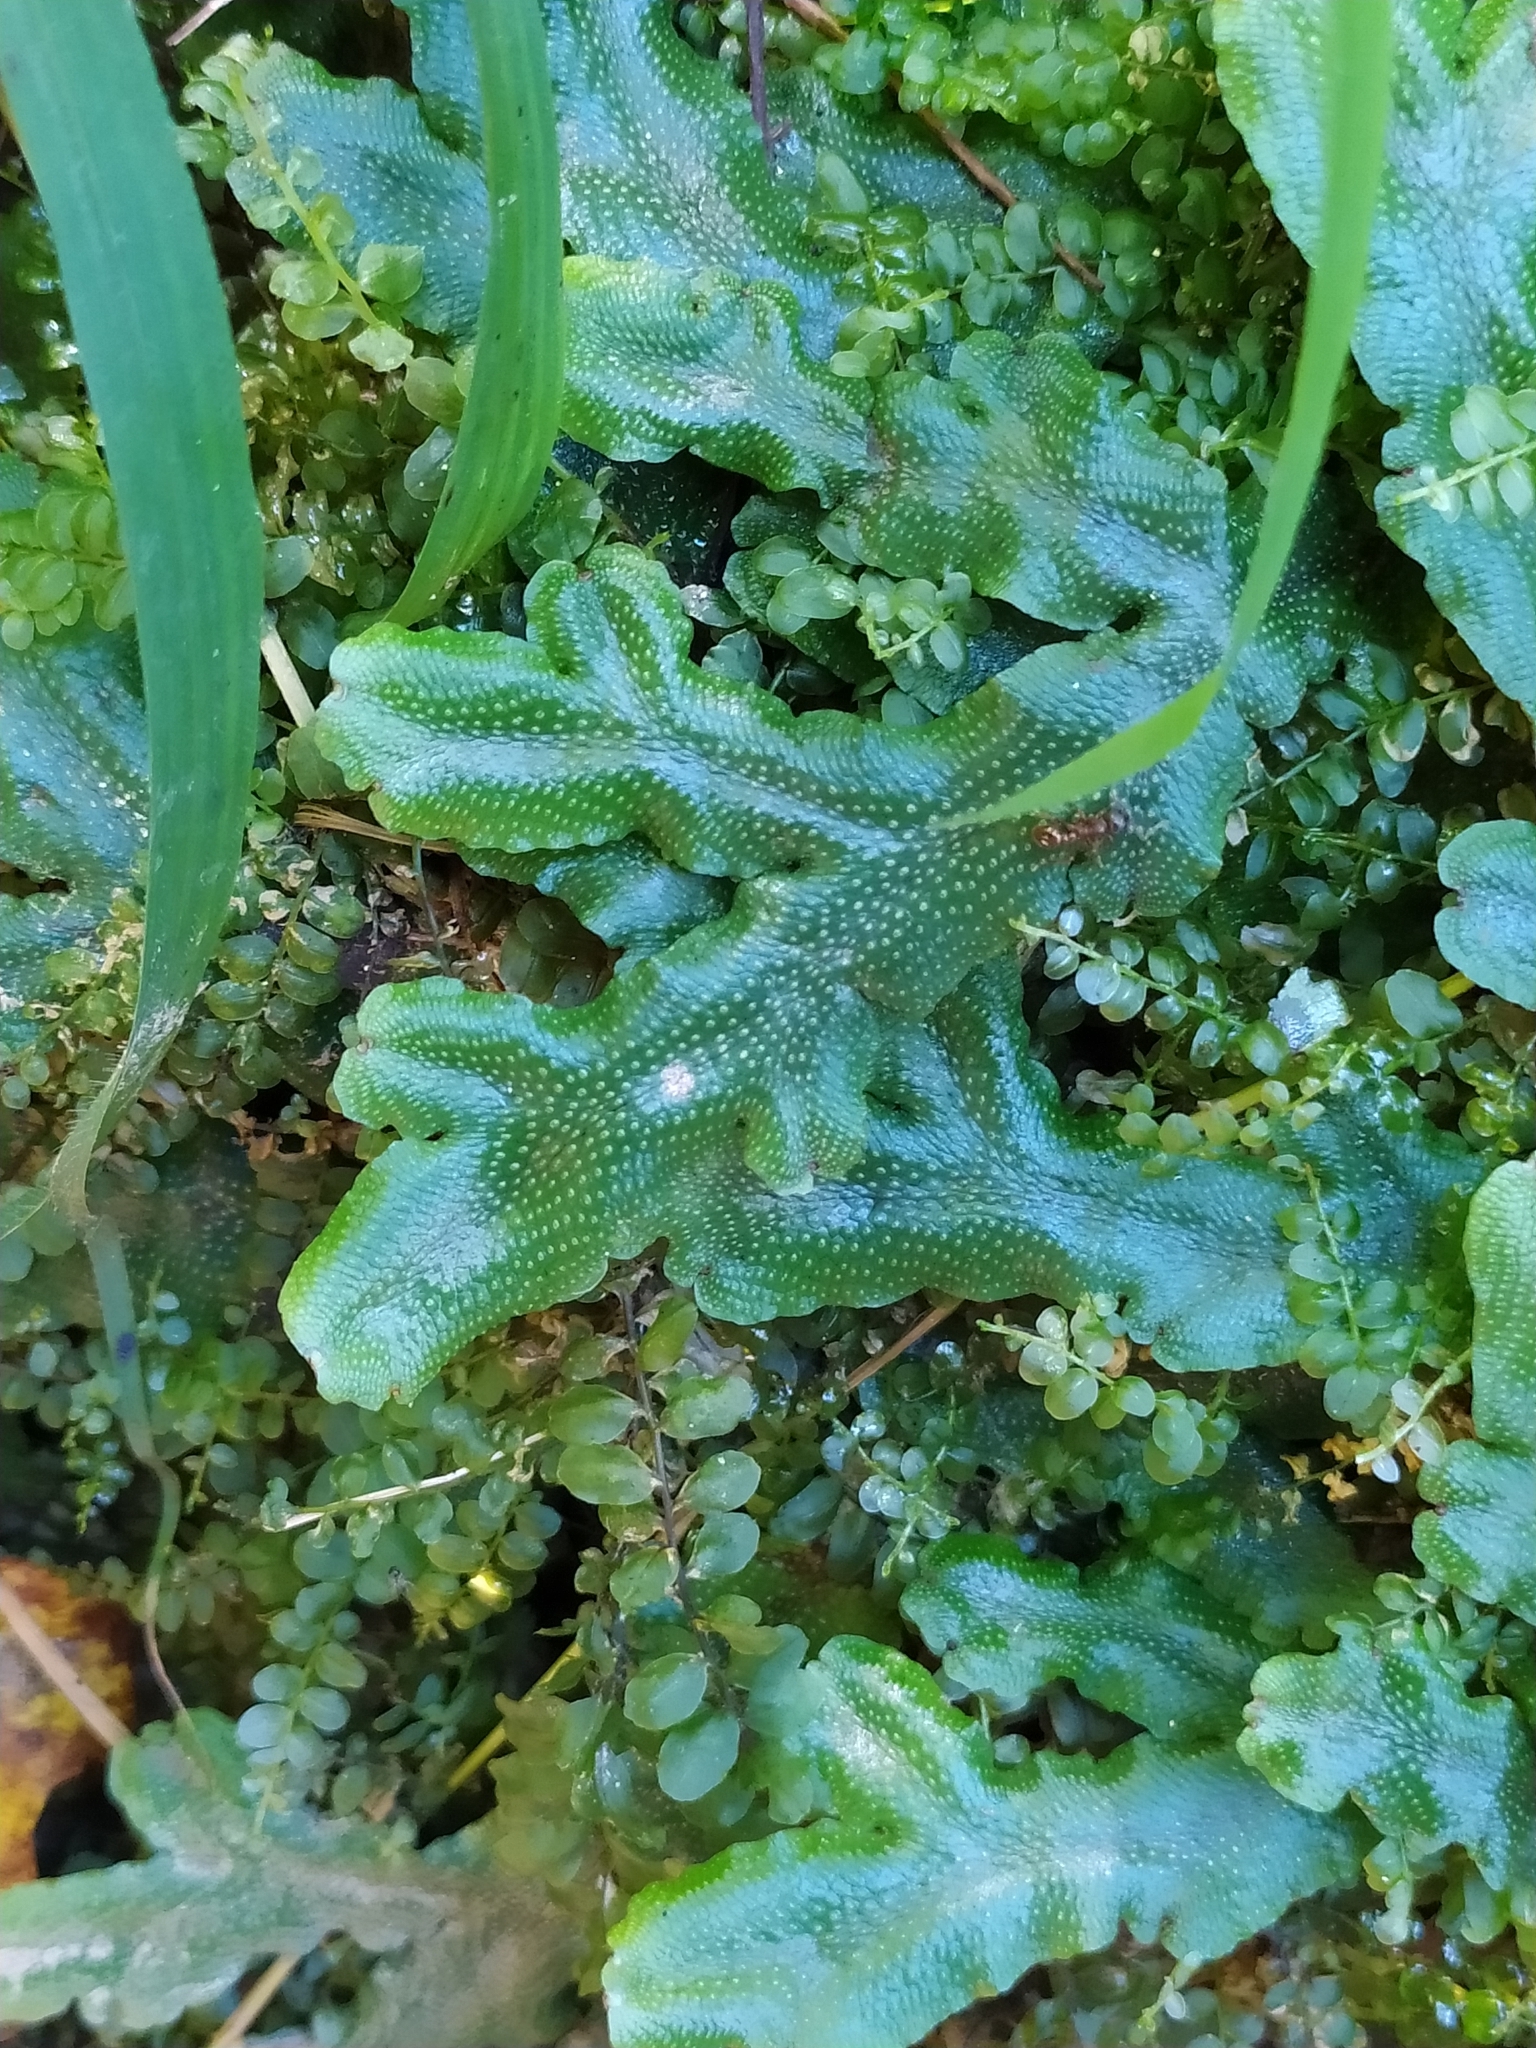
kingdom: Plantae
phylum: Marchantiophyta
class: Marchantiopsida
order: Marchantiales
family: Conocephalaceae
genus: Conocephalum
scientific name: Conocephalum conicum
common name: Great scented liverwort
